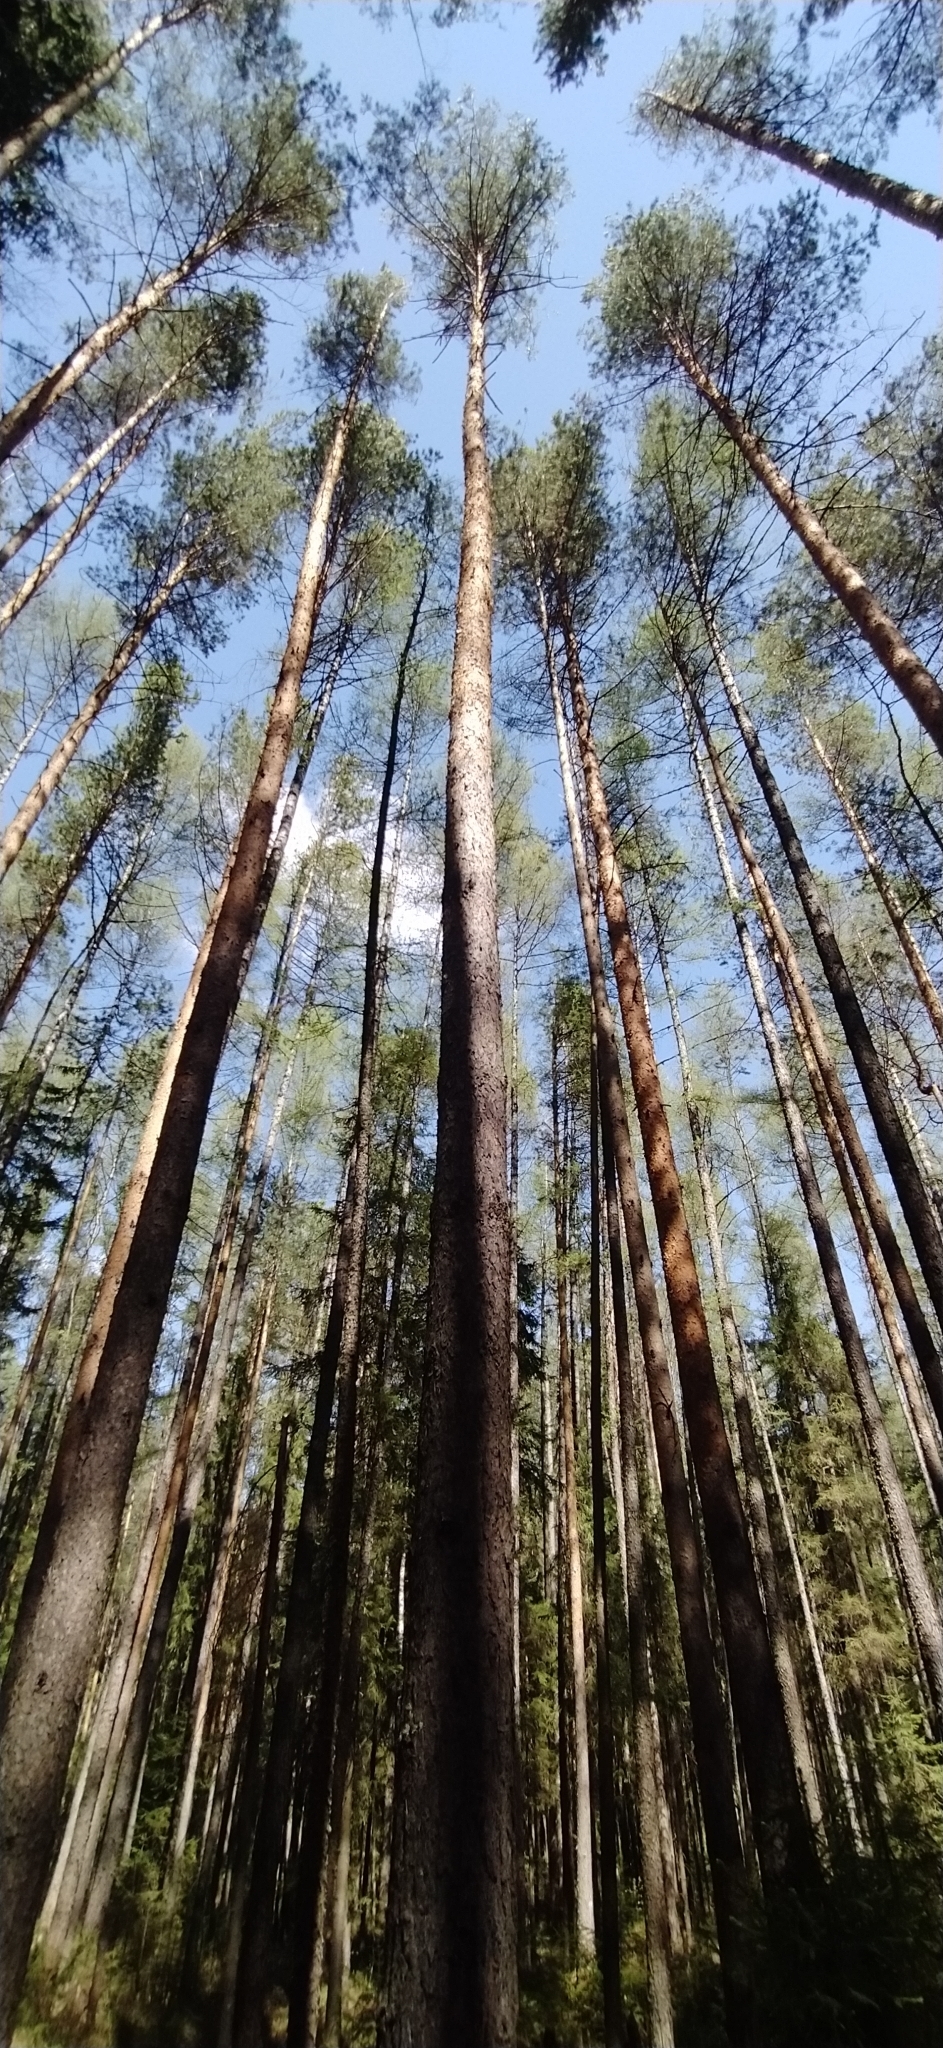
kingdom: Plantae
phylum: Tracheophyta
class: Pinopsida
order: Pinales
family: Pinaceae
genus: Larix
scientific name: Larix sibirica
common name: Siberian larch
